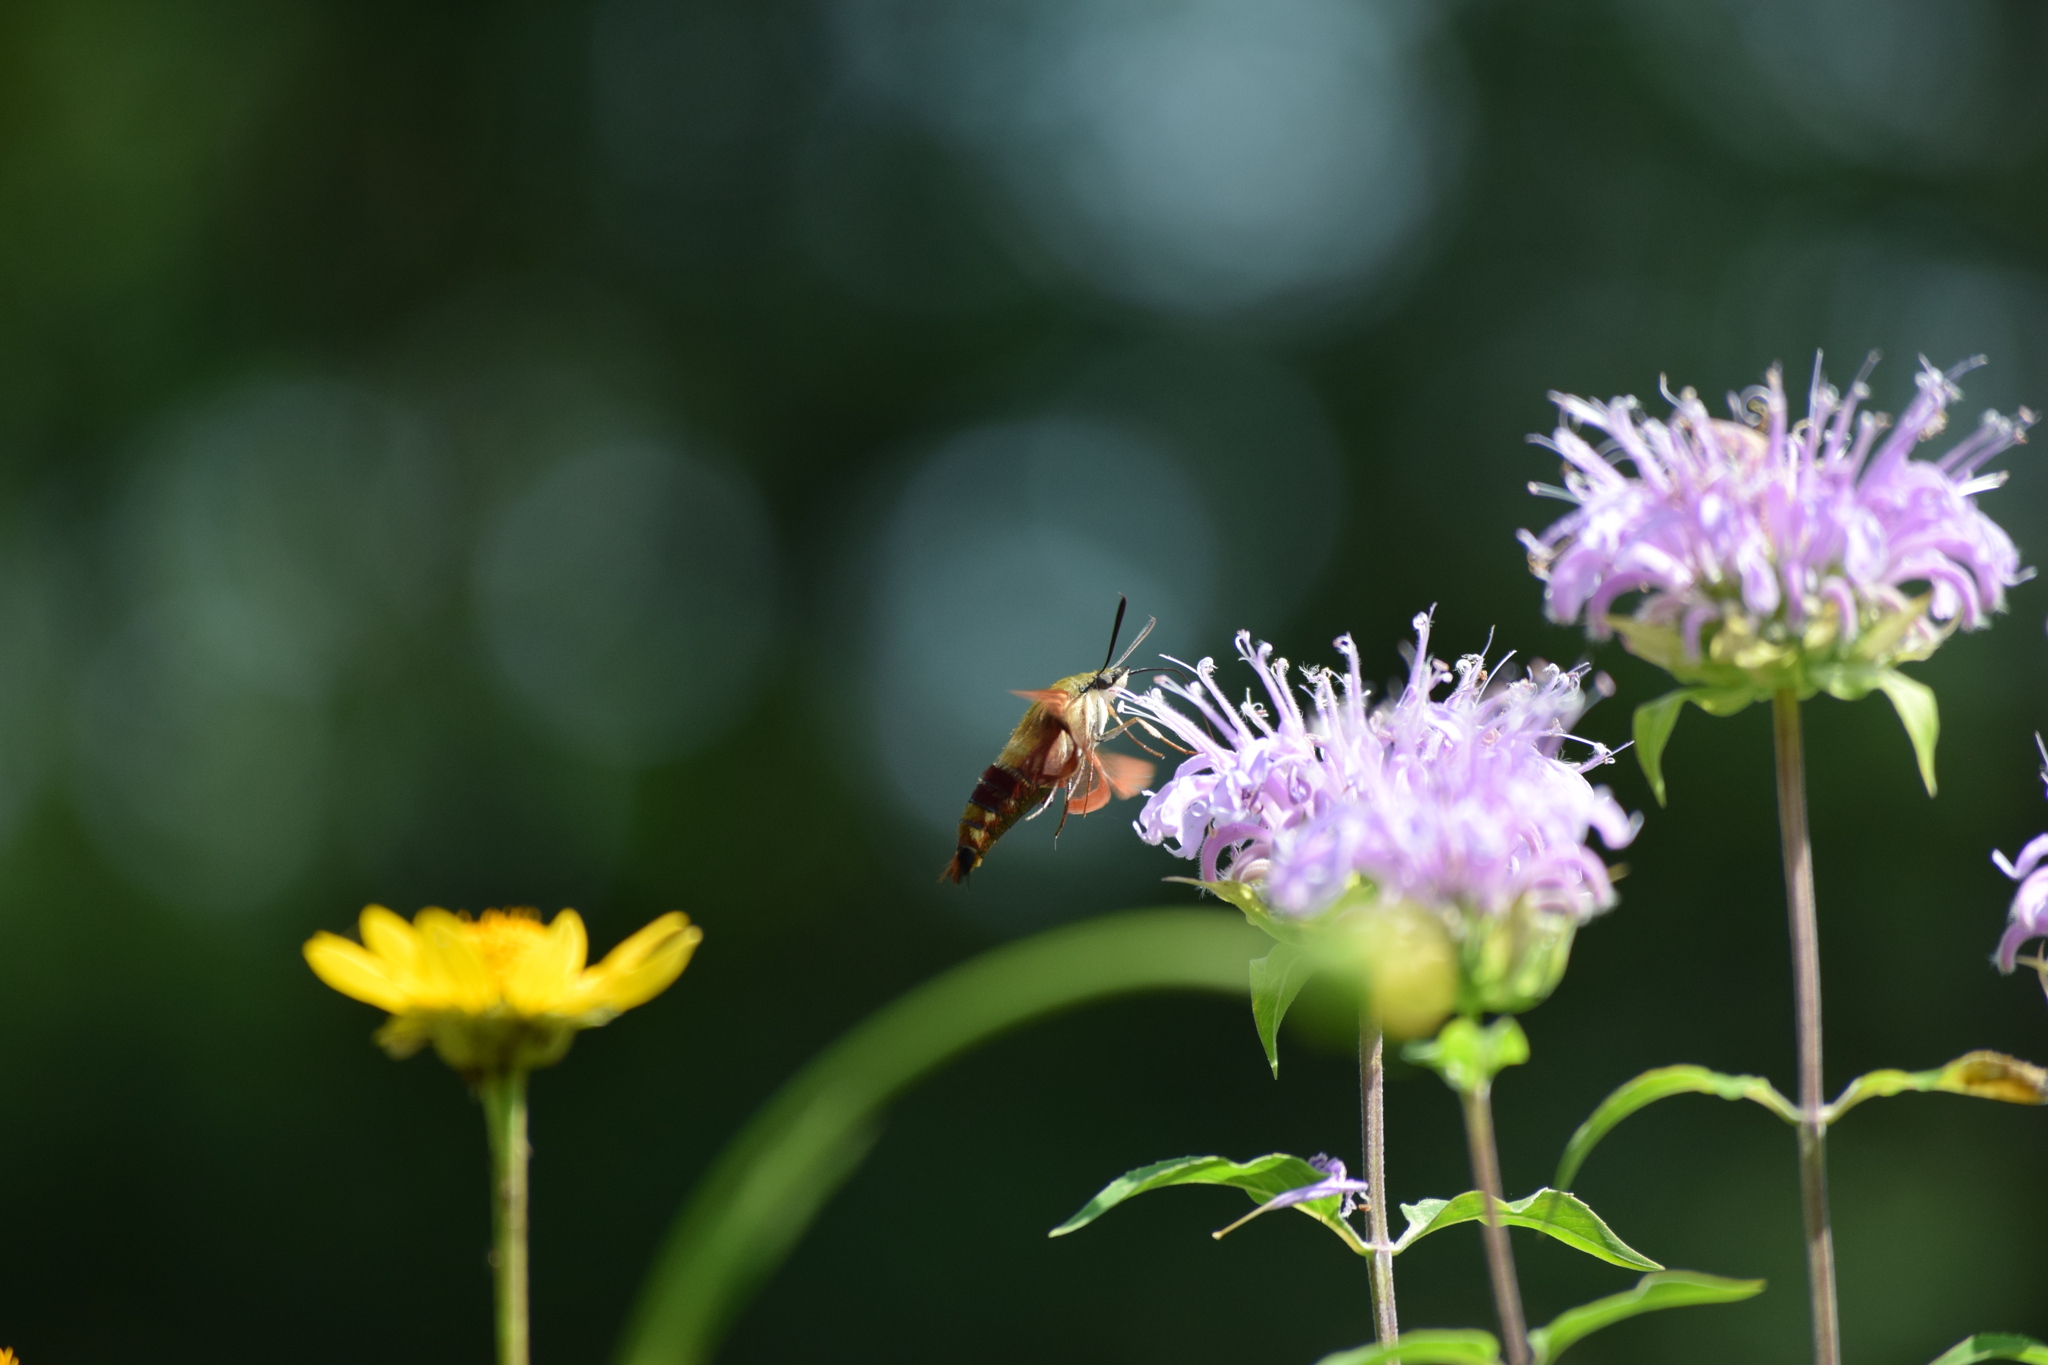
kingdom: Animalia
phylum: Arthropoda
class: Insecta
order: Lepidoptera
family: Sphingidae
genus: Hemaris
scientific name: Hemaris thysbe
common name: Common clear-wing
